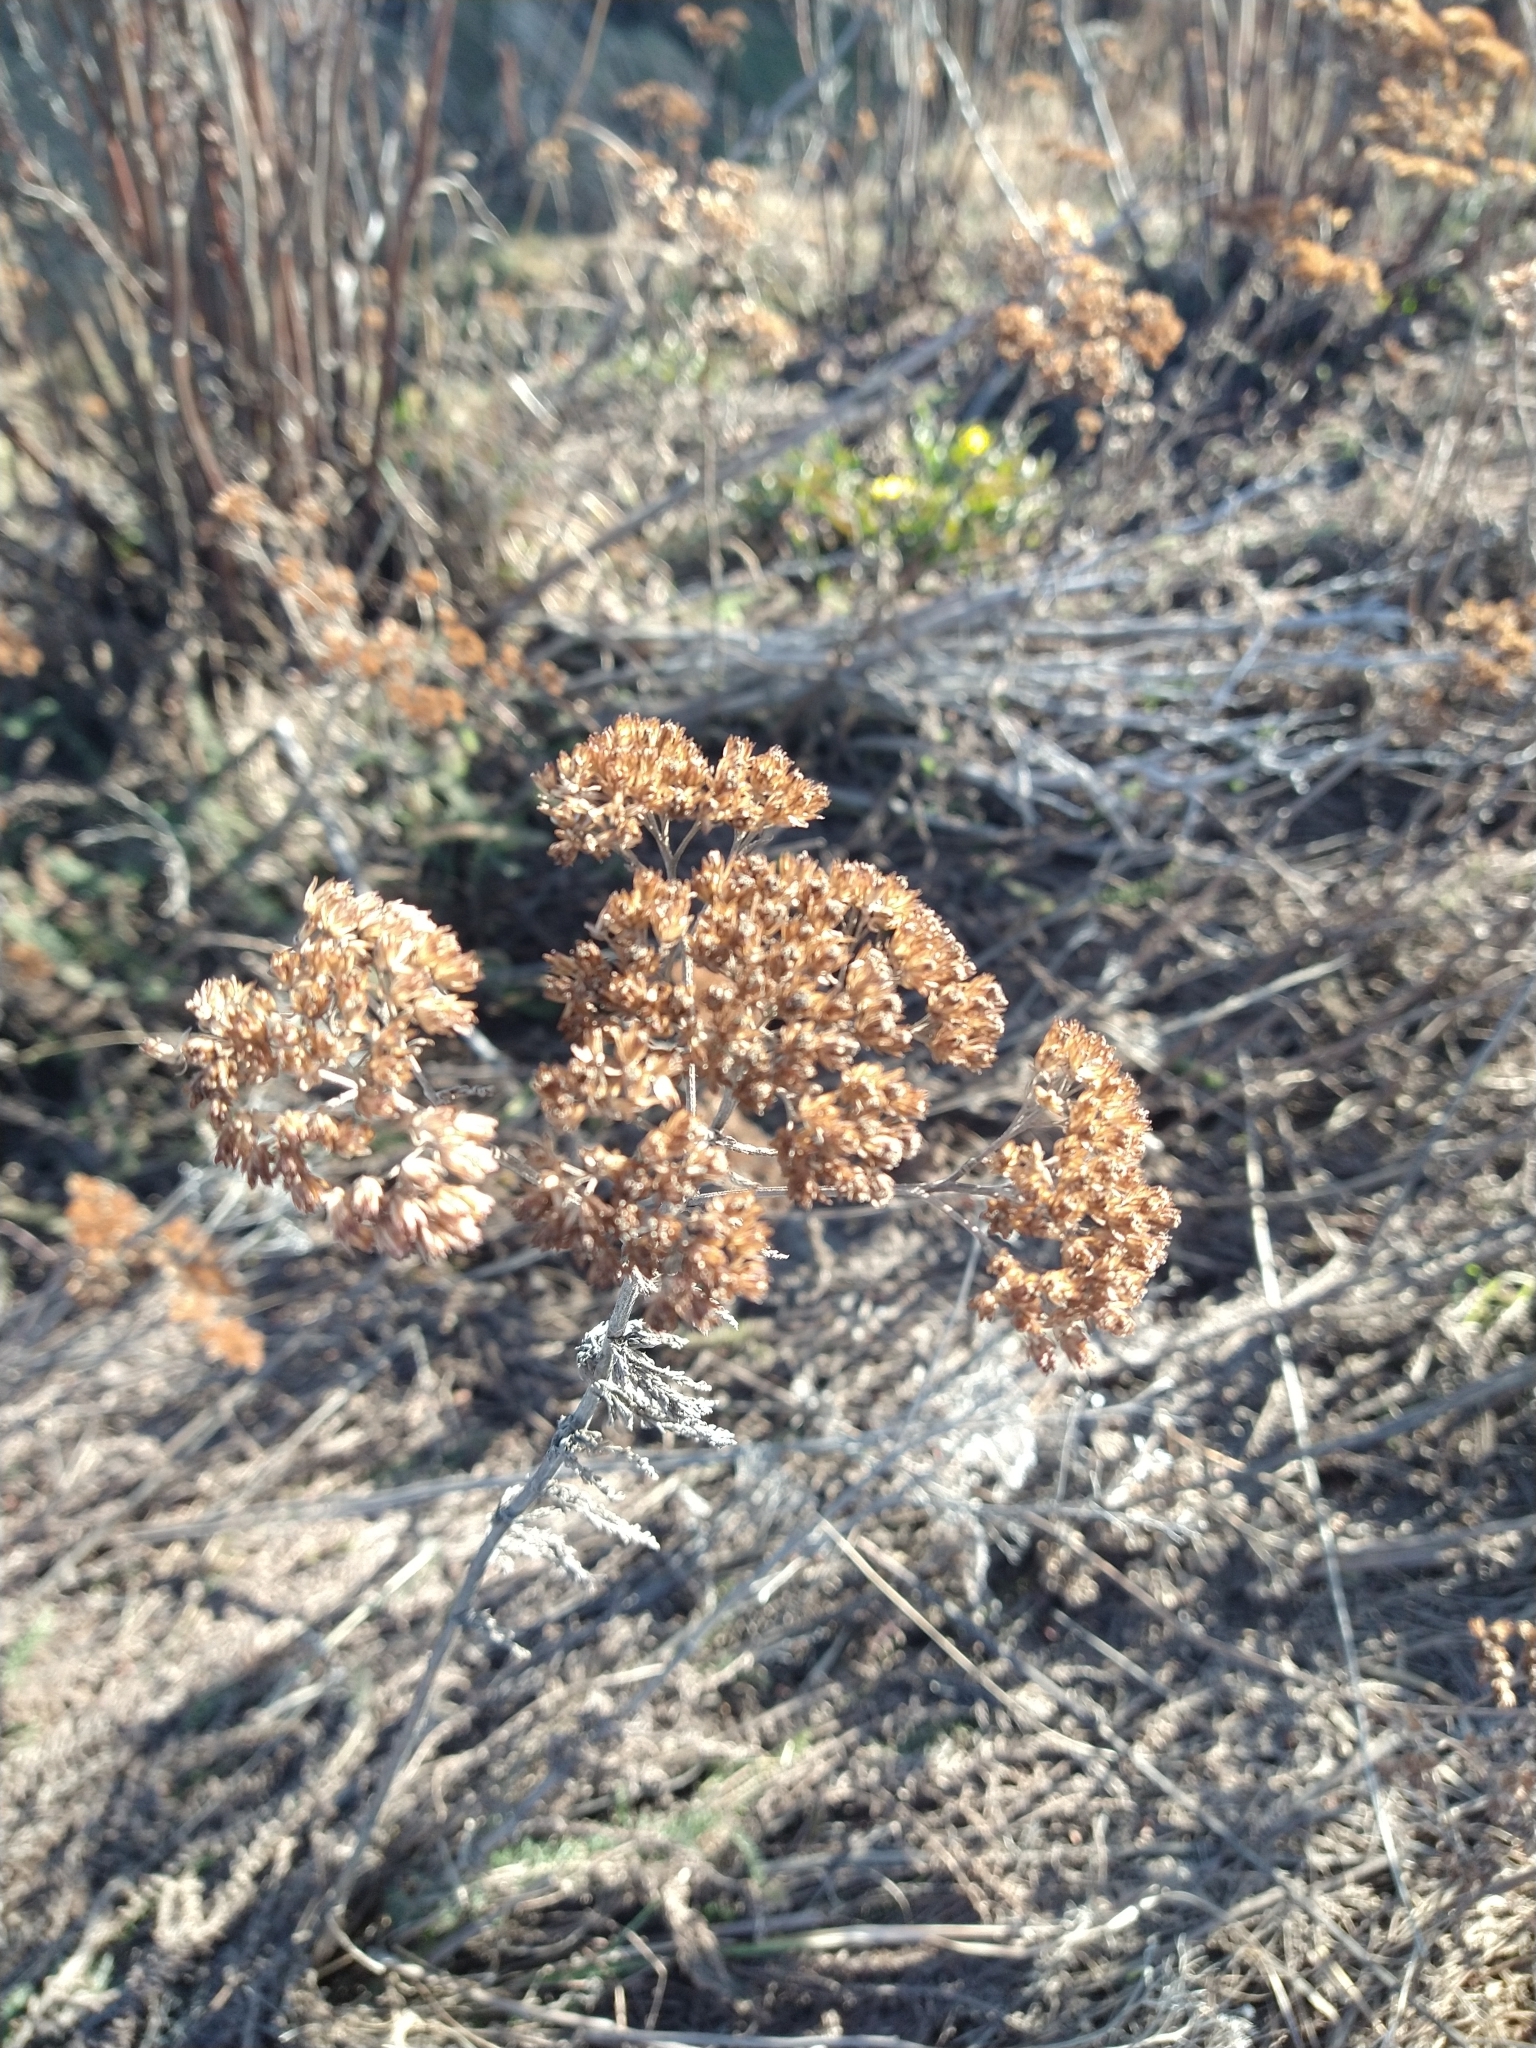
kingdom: Plantae
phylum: Tracheophyta
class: Magnoliopsida
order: Asterales
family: Asteraceae
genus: Achillea
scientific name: Achillea millefolium
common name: Yarrow
